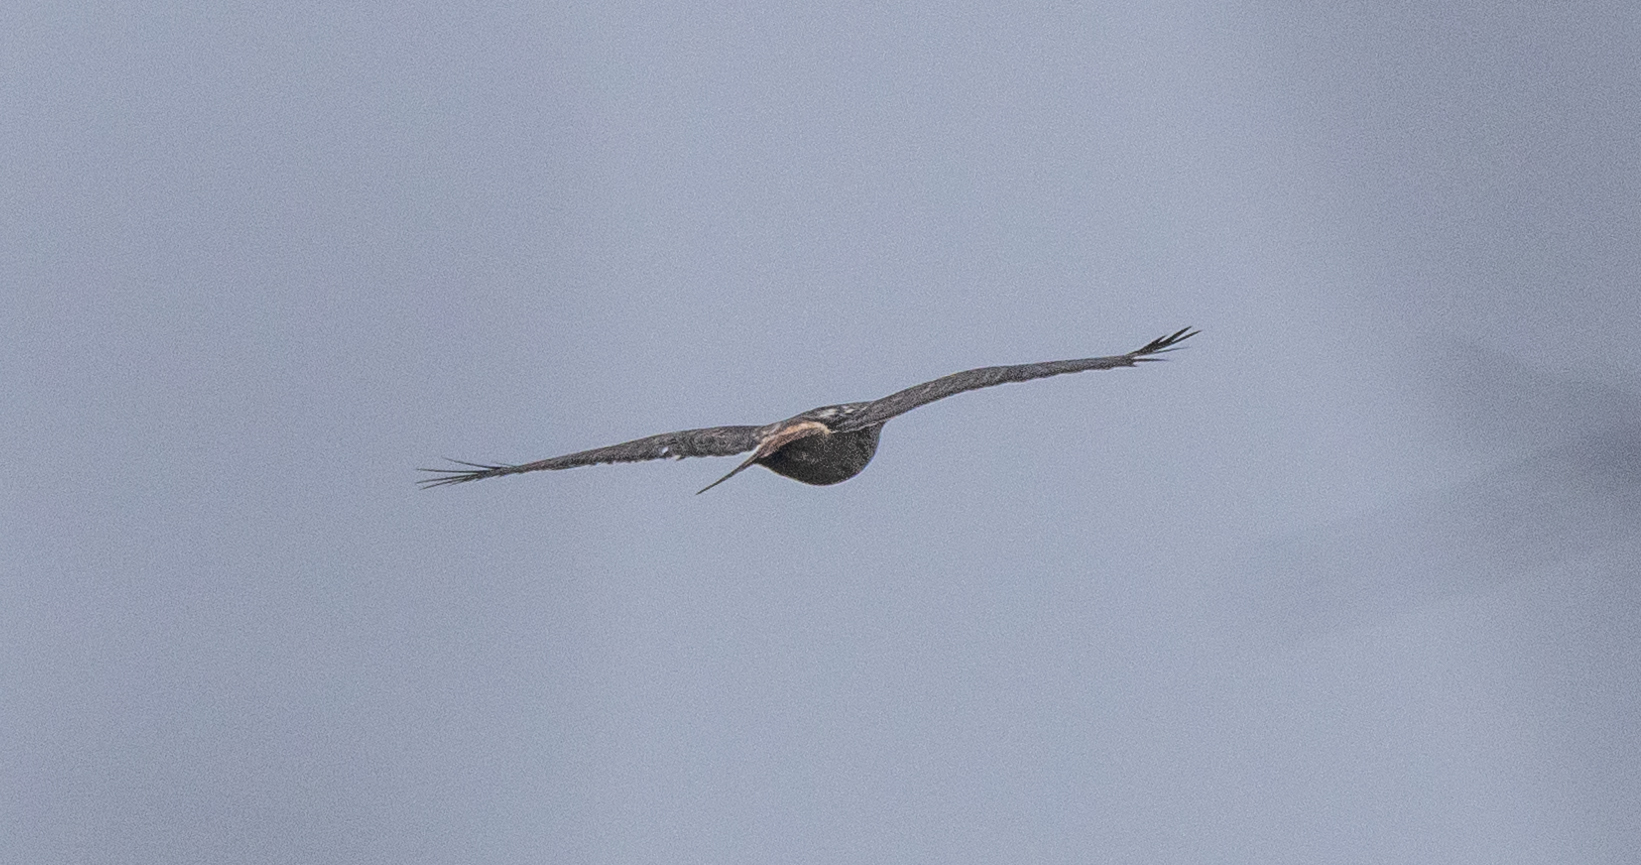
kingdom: Animalia
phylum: Chordata
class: Aves
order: Accipitriformes
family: Accipitridae
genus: Buteo
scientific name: Buteo jamaicensis
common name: Red-tailed hawk
